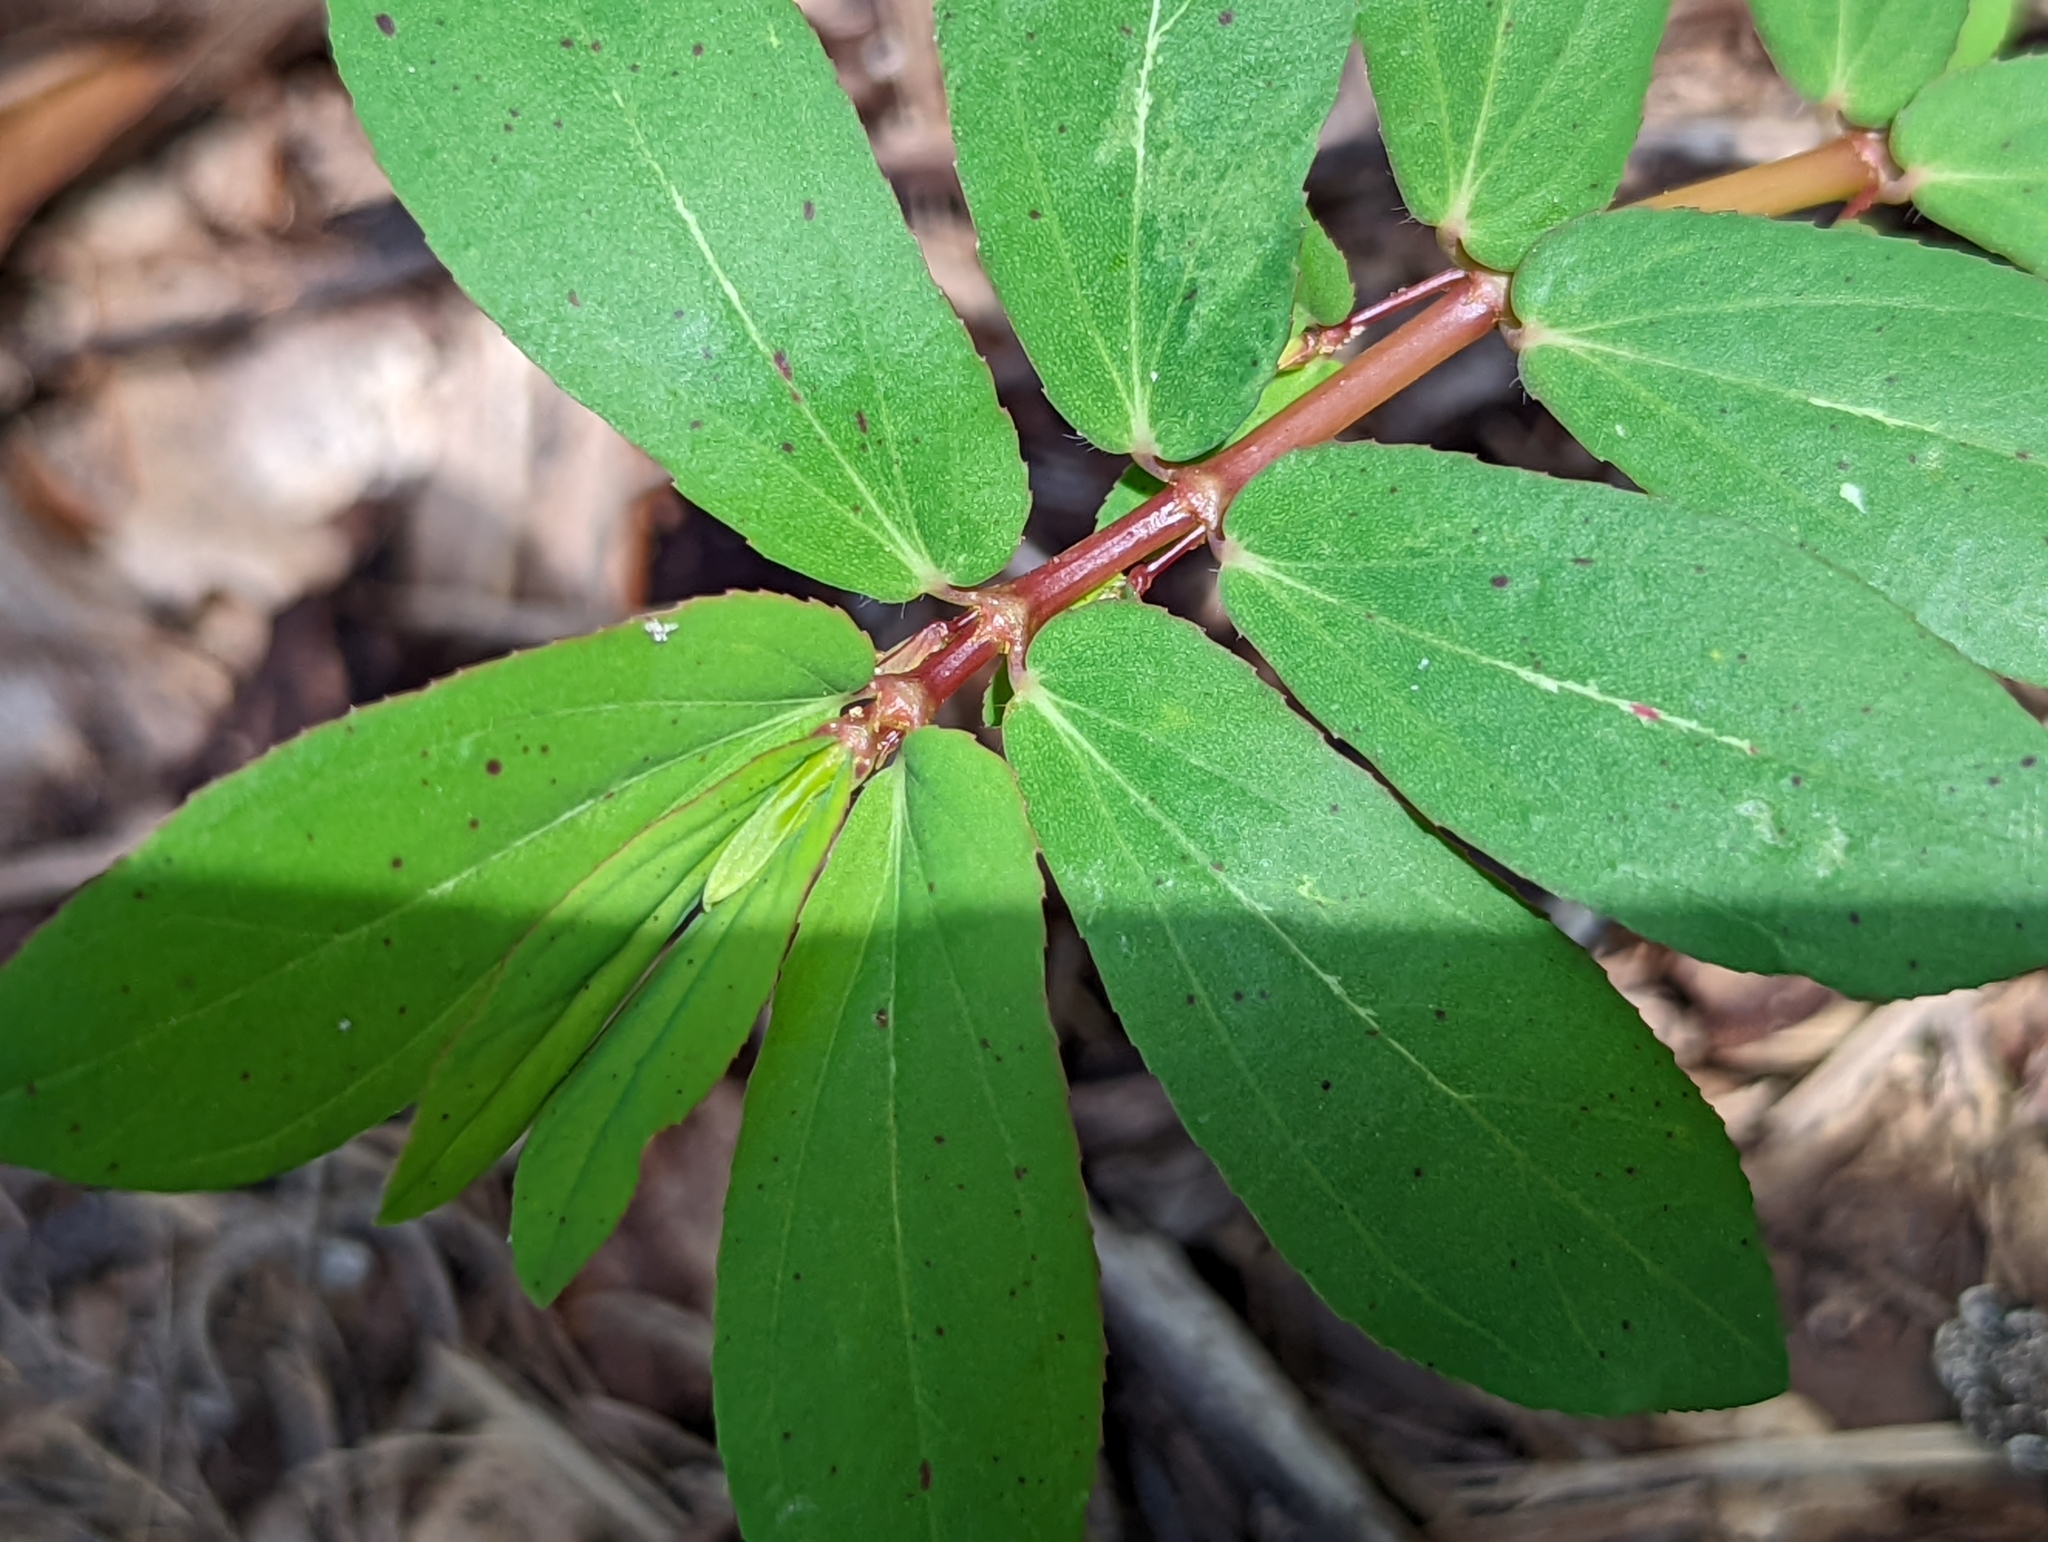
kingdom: Plantae
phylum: Tracheophyta
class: Magnoliopsida
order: Malpighiales
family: Euphorbiaceae
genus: Euphorbia
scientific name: Euphorbia hyssopifolia
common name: Hyssopleaf sandmat
